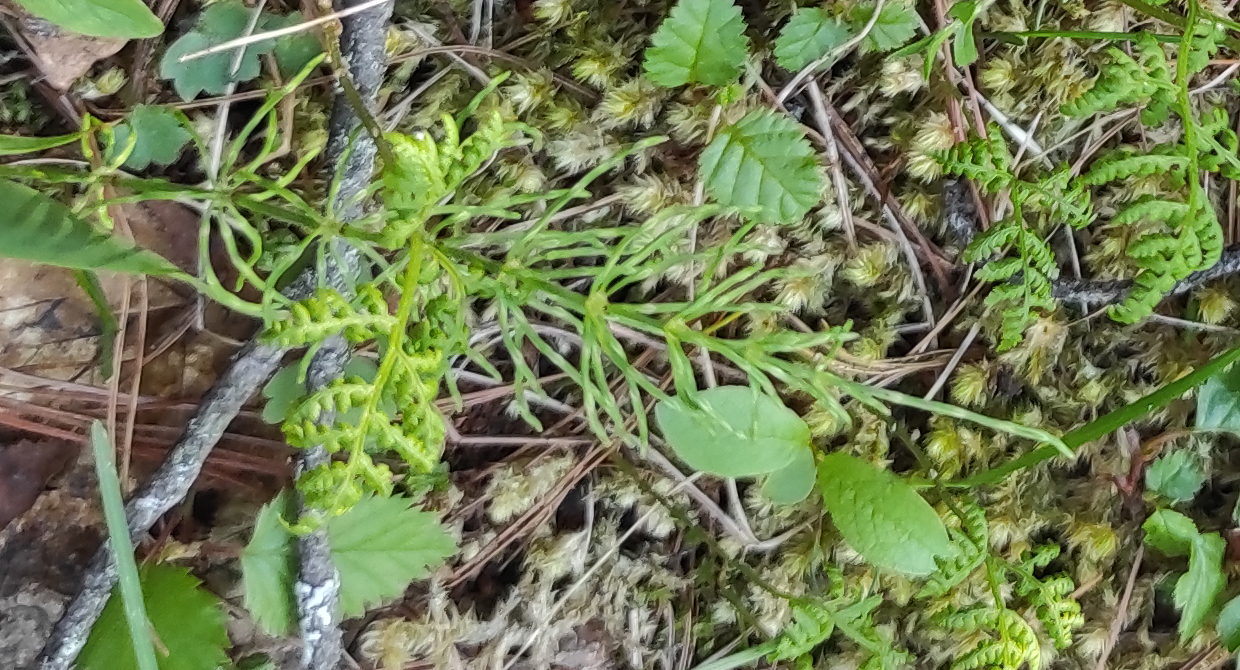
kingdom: Plantae
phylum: Tracheophyta
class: Polypodiopsida
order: Equisetales
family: Equisetaceae
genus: Equisetum
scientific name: Equisetum arvense
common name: Field horsetail
